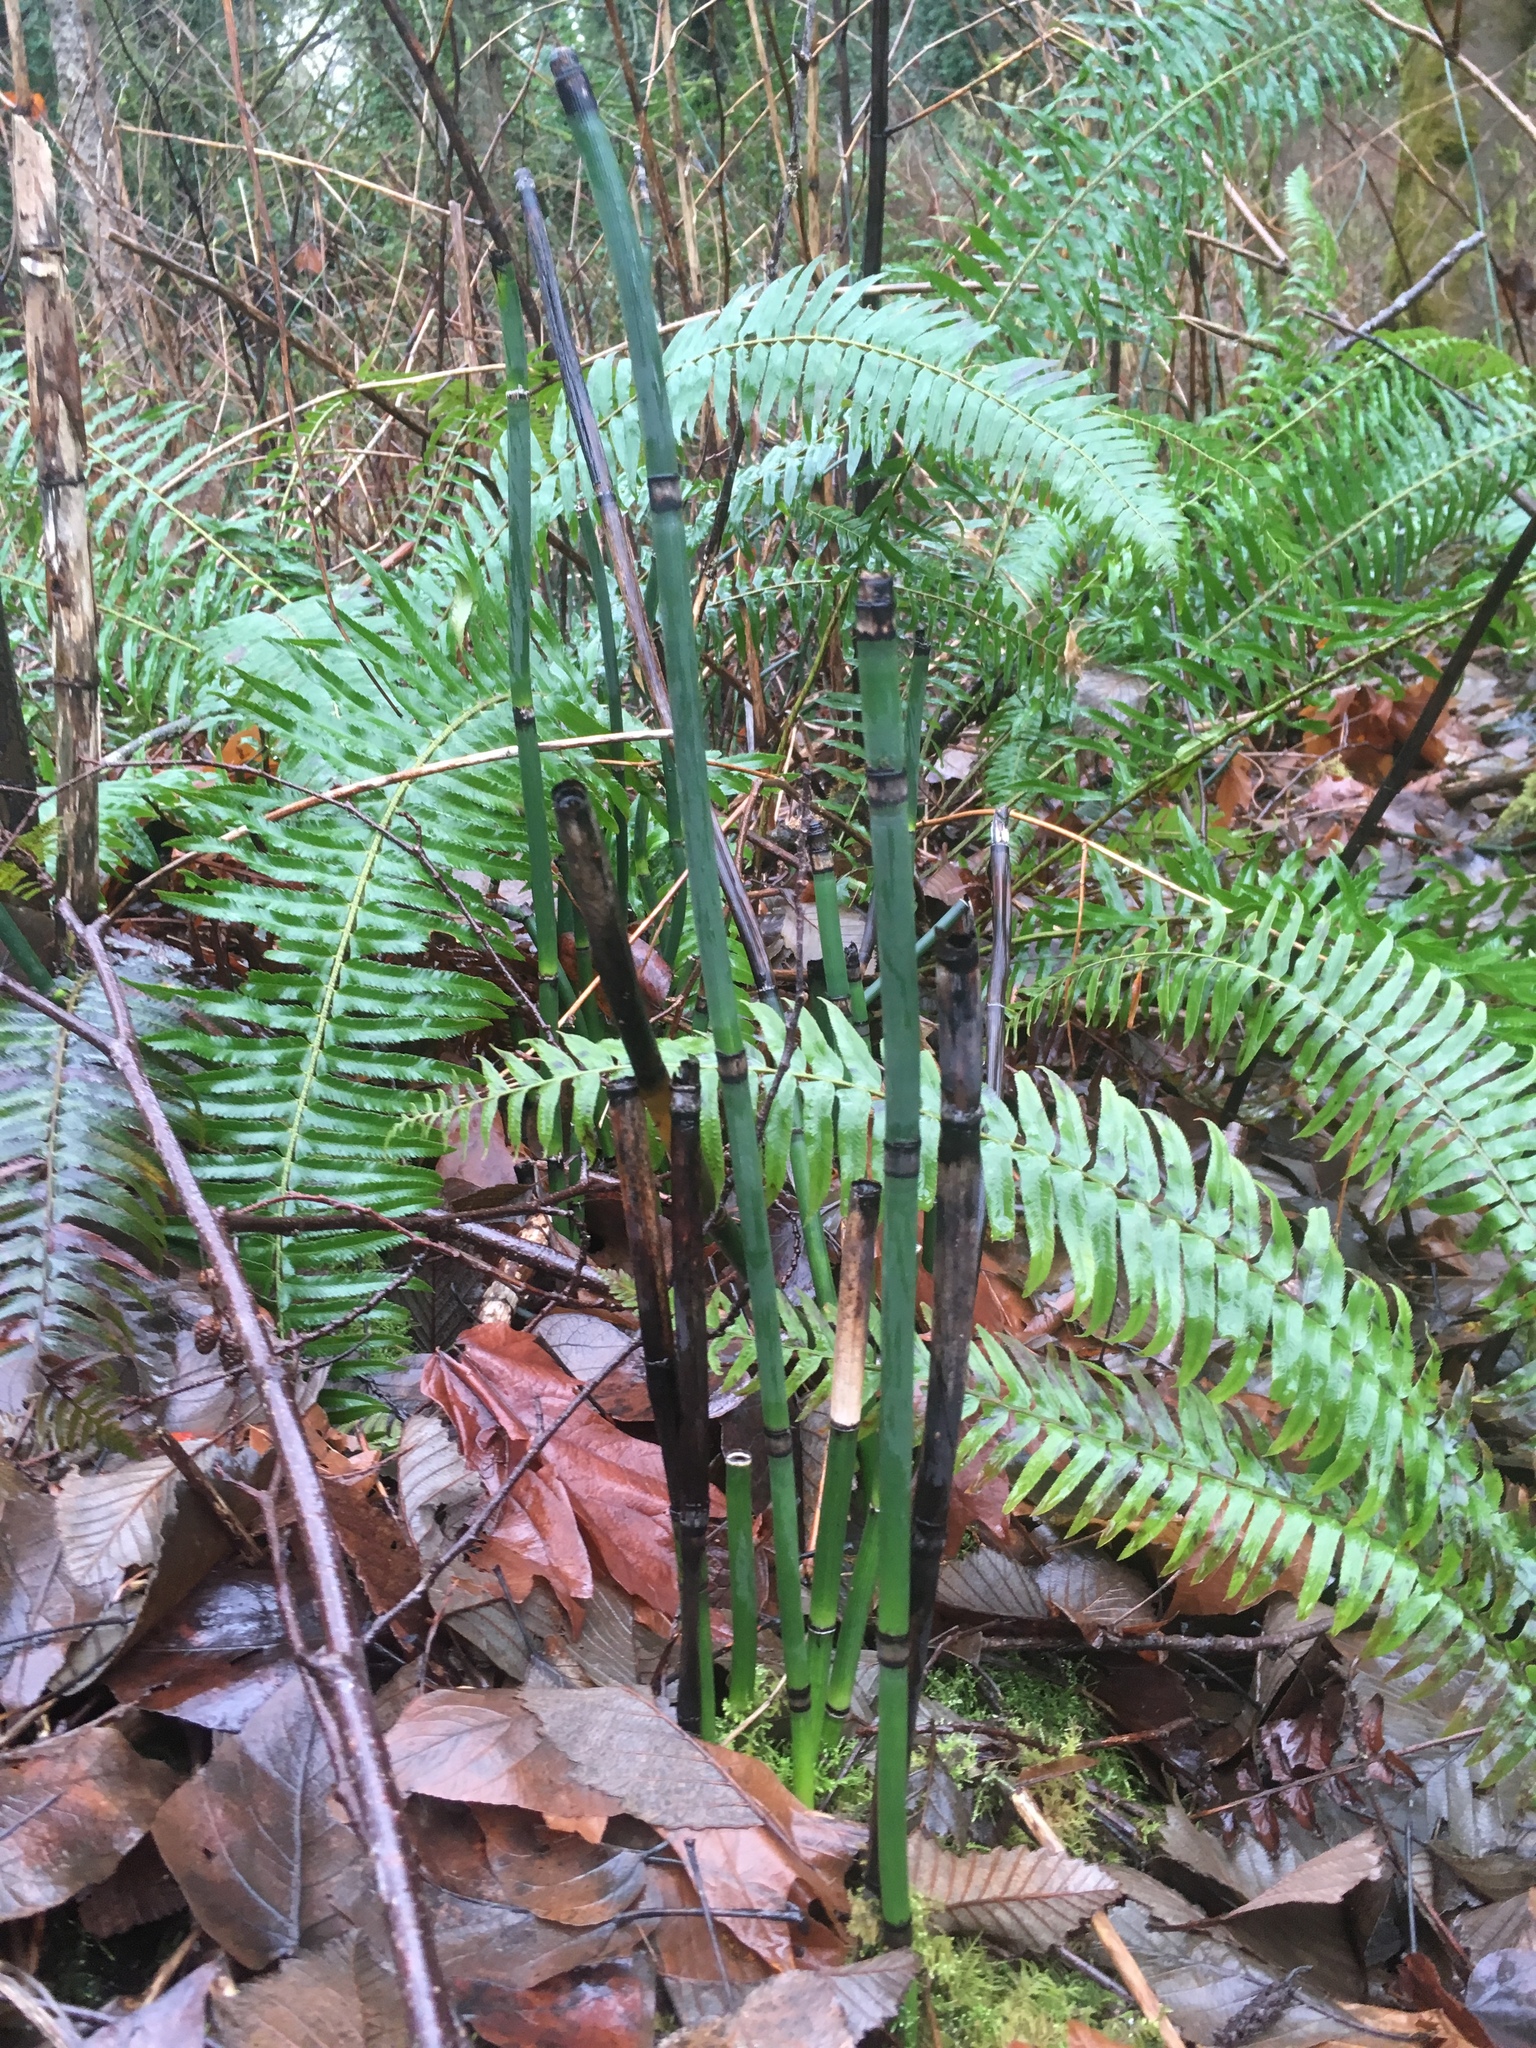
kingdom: Plantae
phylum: Tracheophyta
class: Polypodiopsida
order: Equisetales
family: Equisetaceae
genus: Equisetum
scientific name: Equisetum hyemale
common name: Rough horsetail
